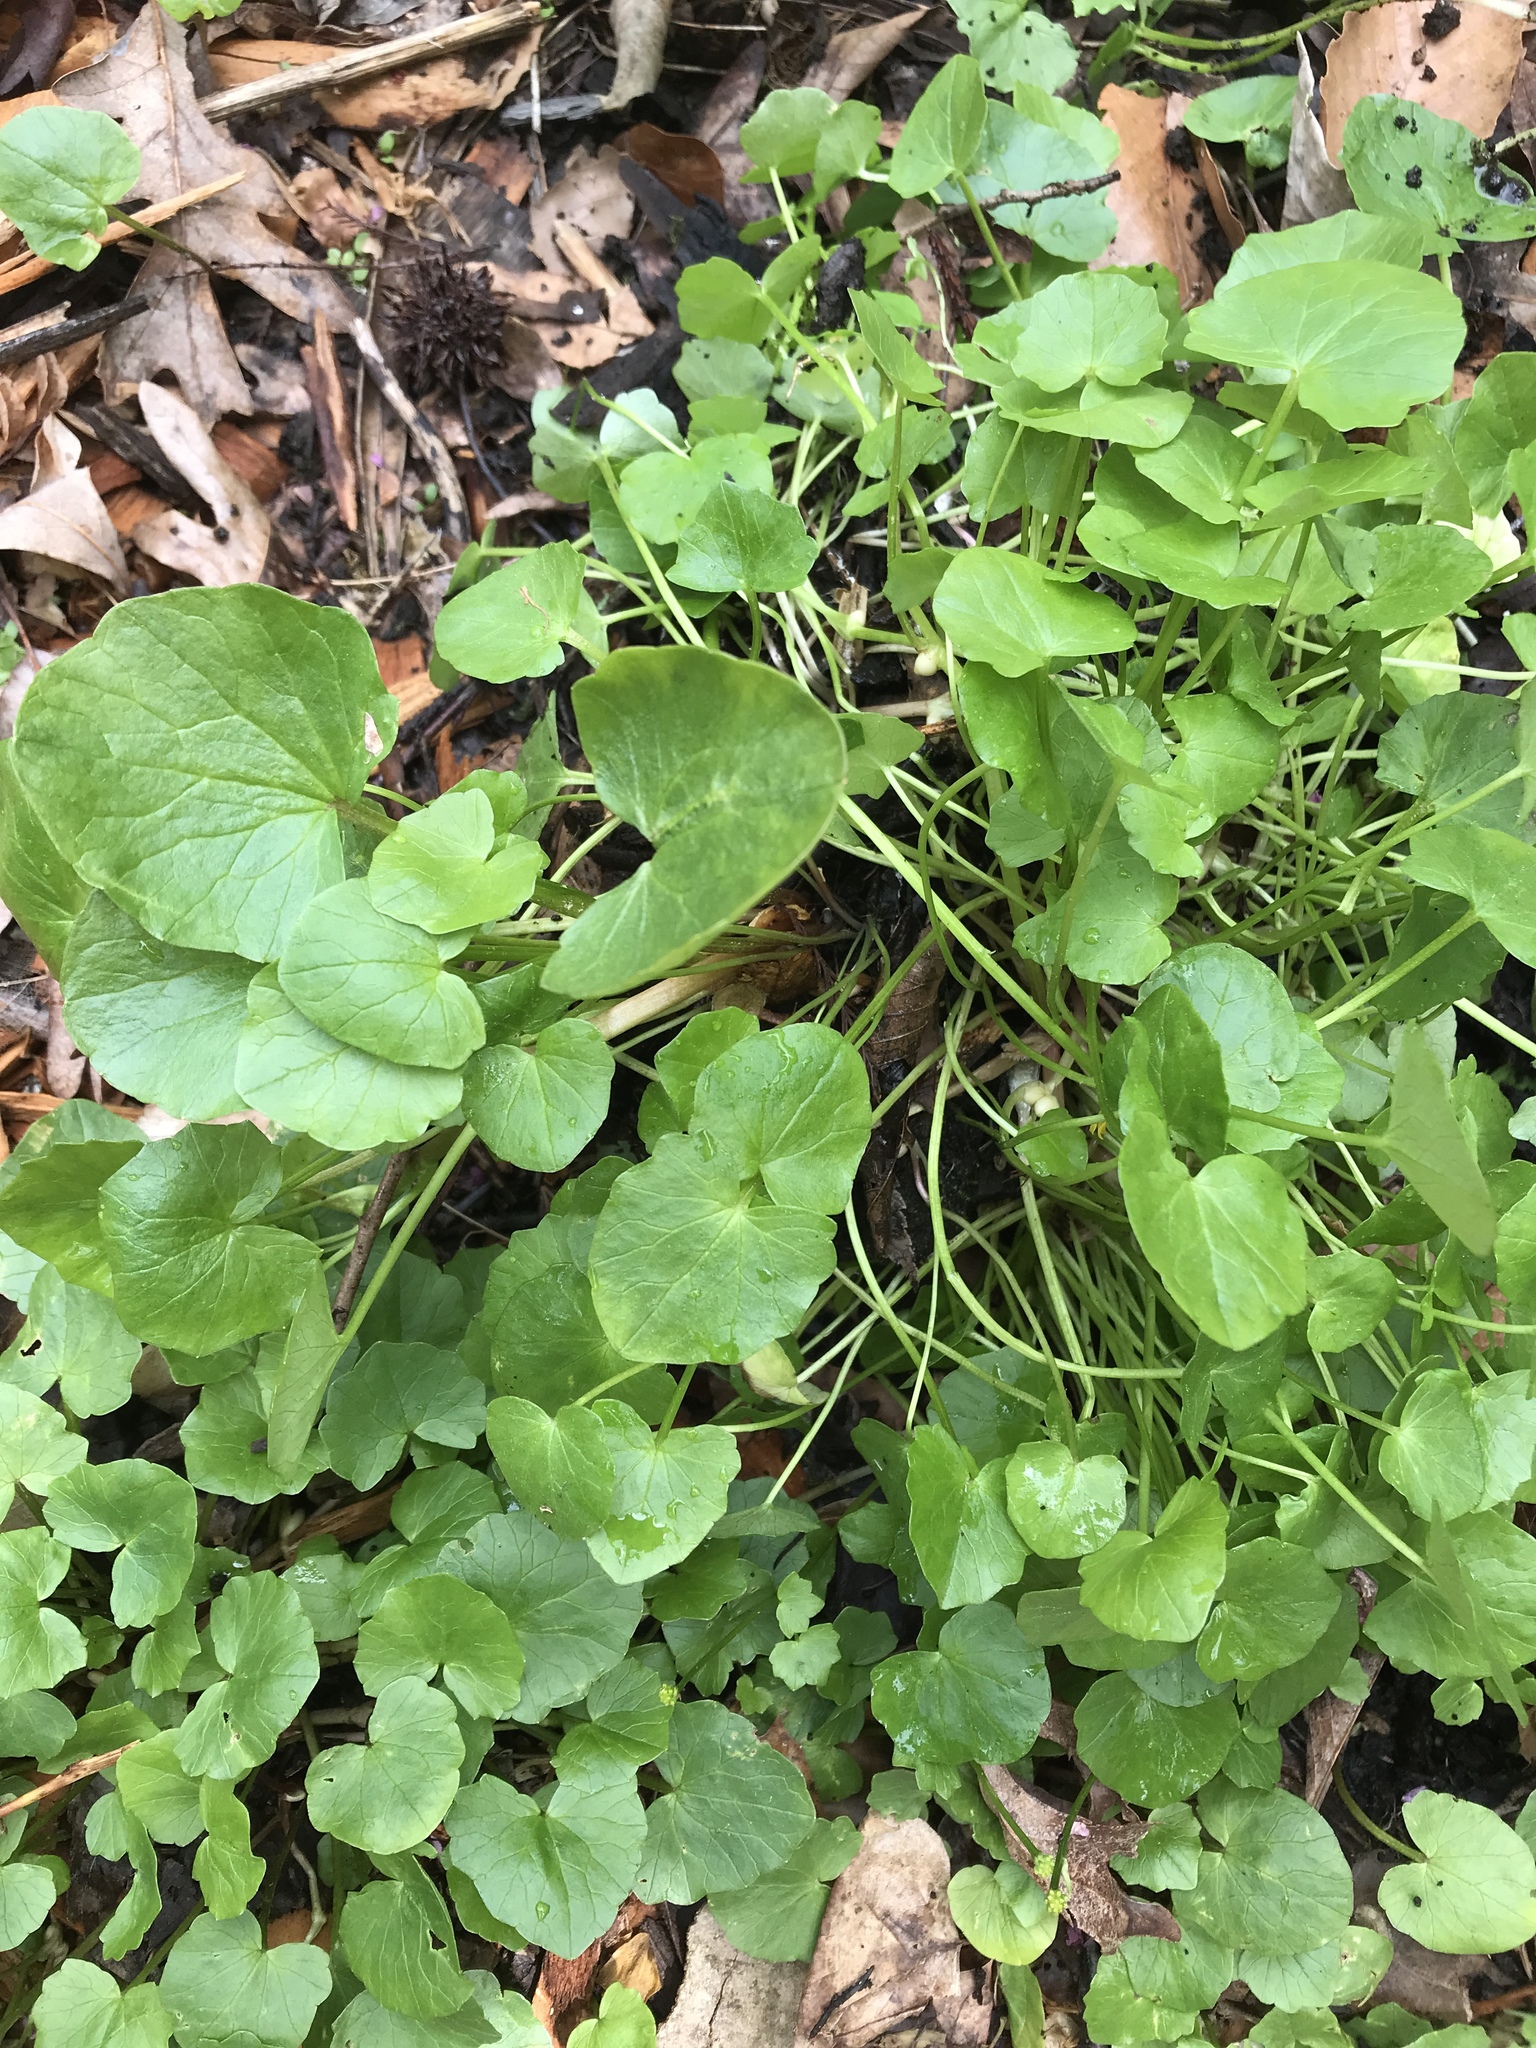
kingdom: Plantae
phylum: Tracheophyta
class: Magnoliopsida
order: Ranunculales
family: Ranunculaceae
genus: Ficaria
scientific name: Ficaria verna
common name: Lesser celandine
